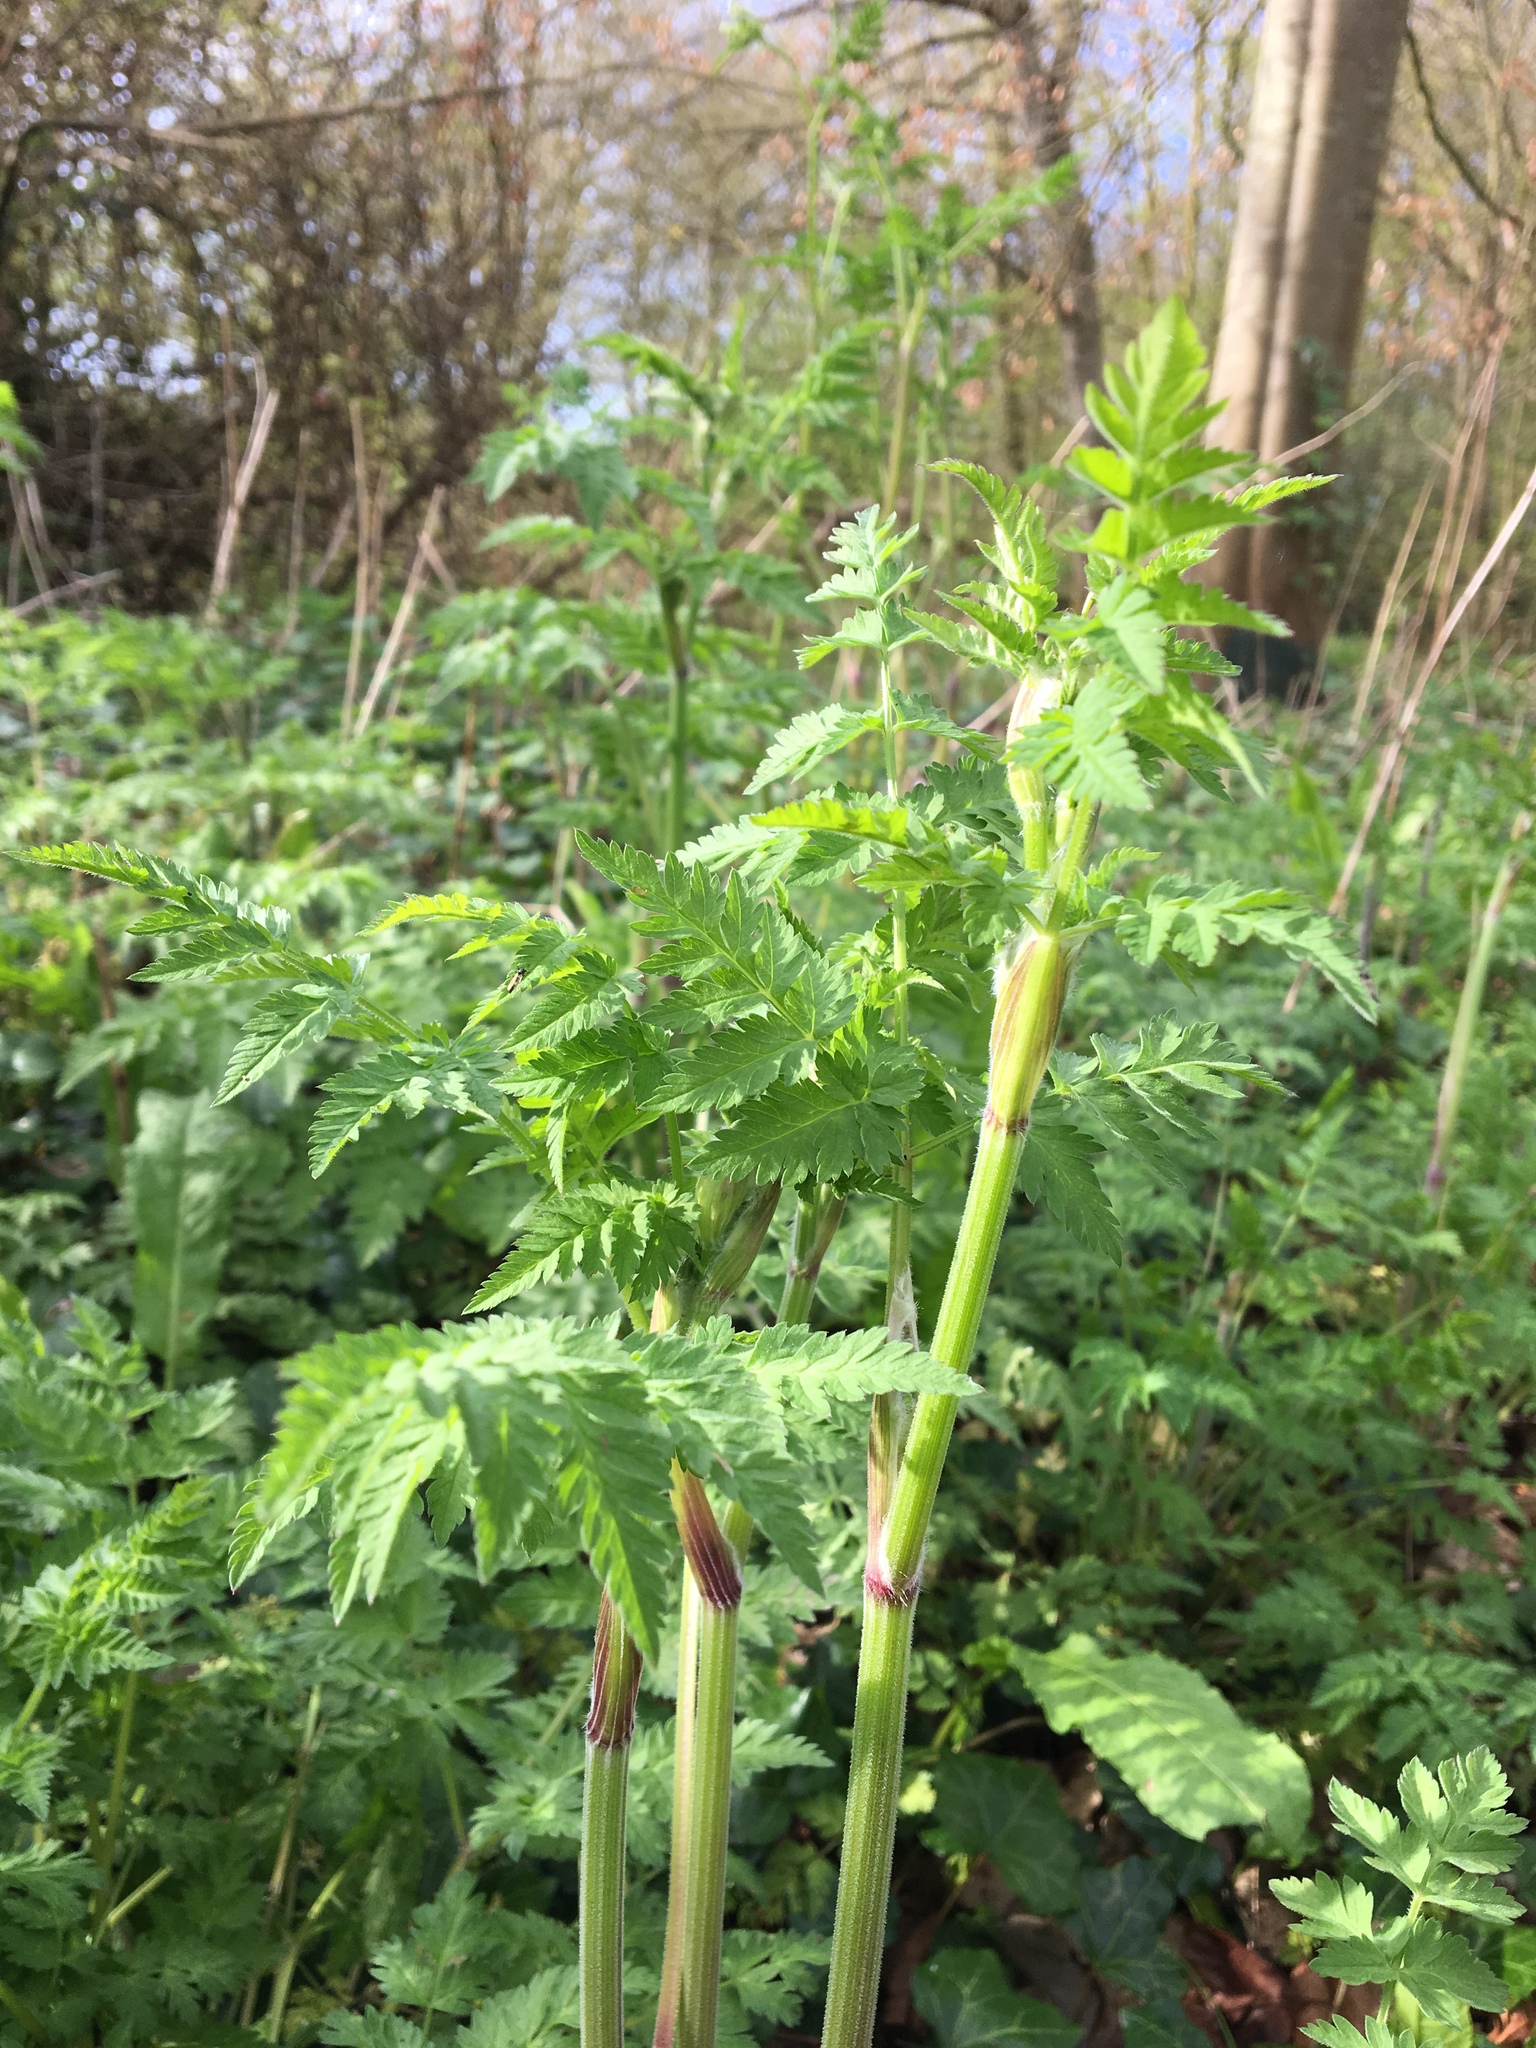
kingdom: Plantae
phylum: Tracheophyta
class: Magnoliopsida
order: Apiales
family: Apiaceae
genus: Anthriscus
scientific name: Anthriscus sylvestris
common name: Cow parsley
